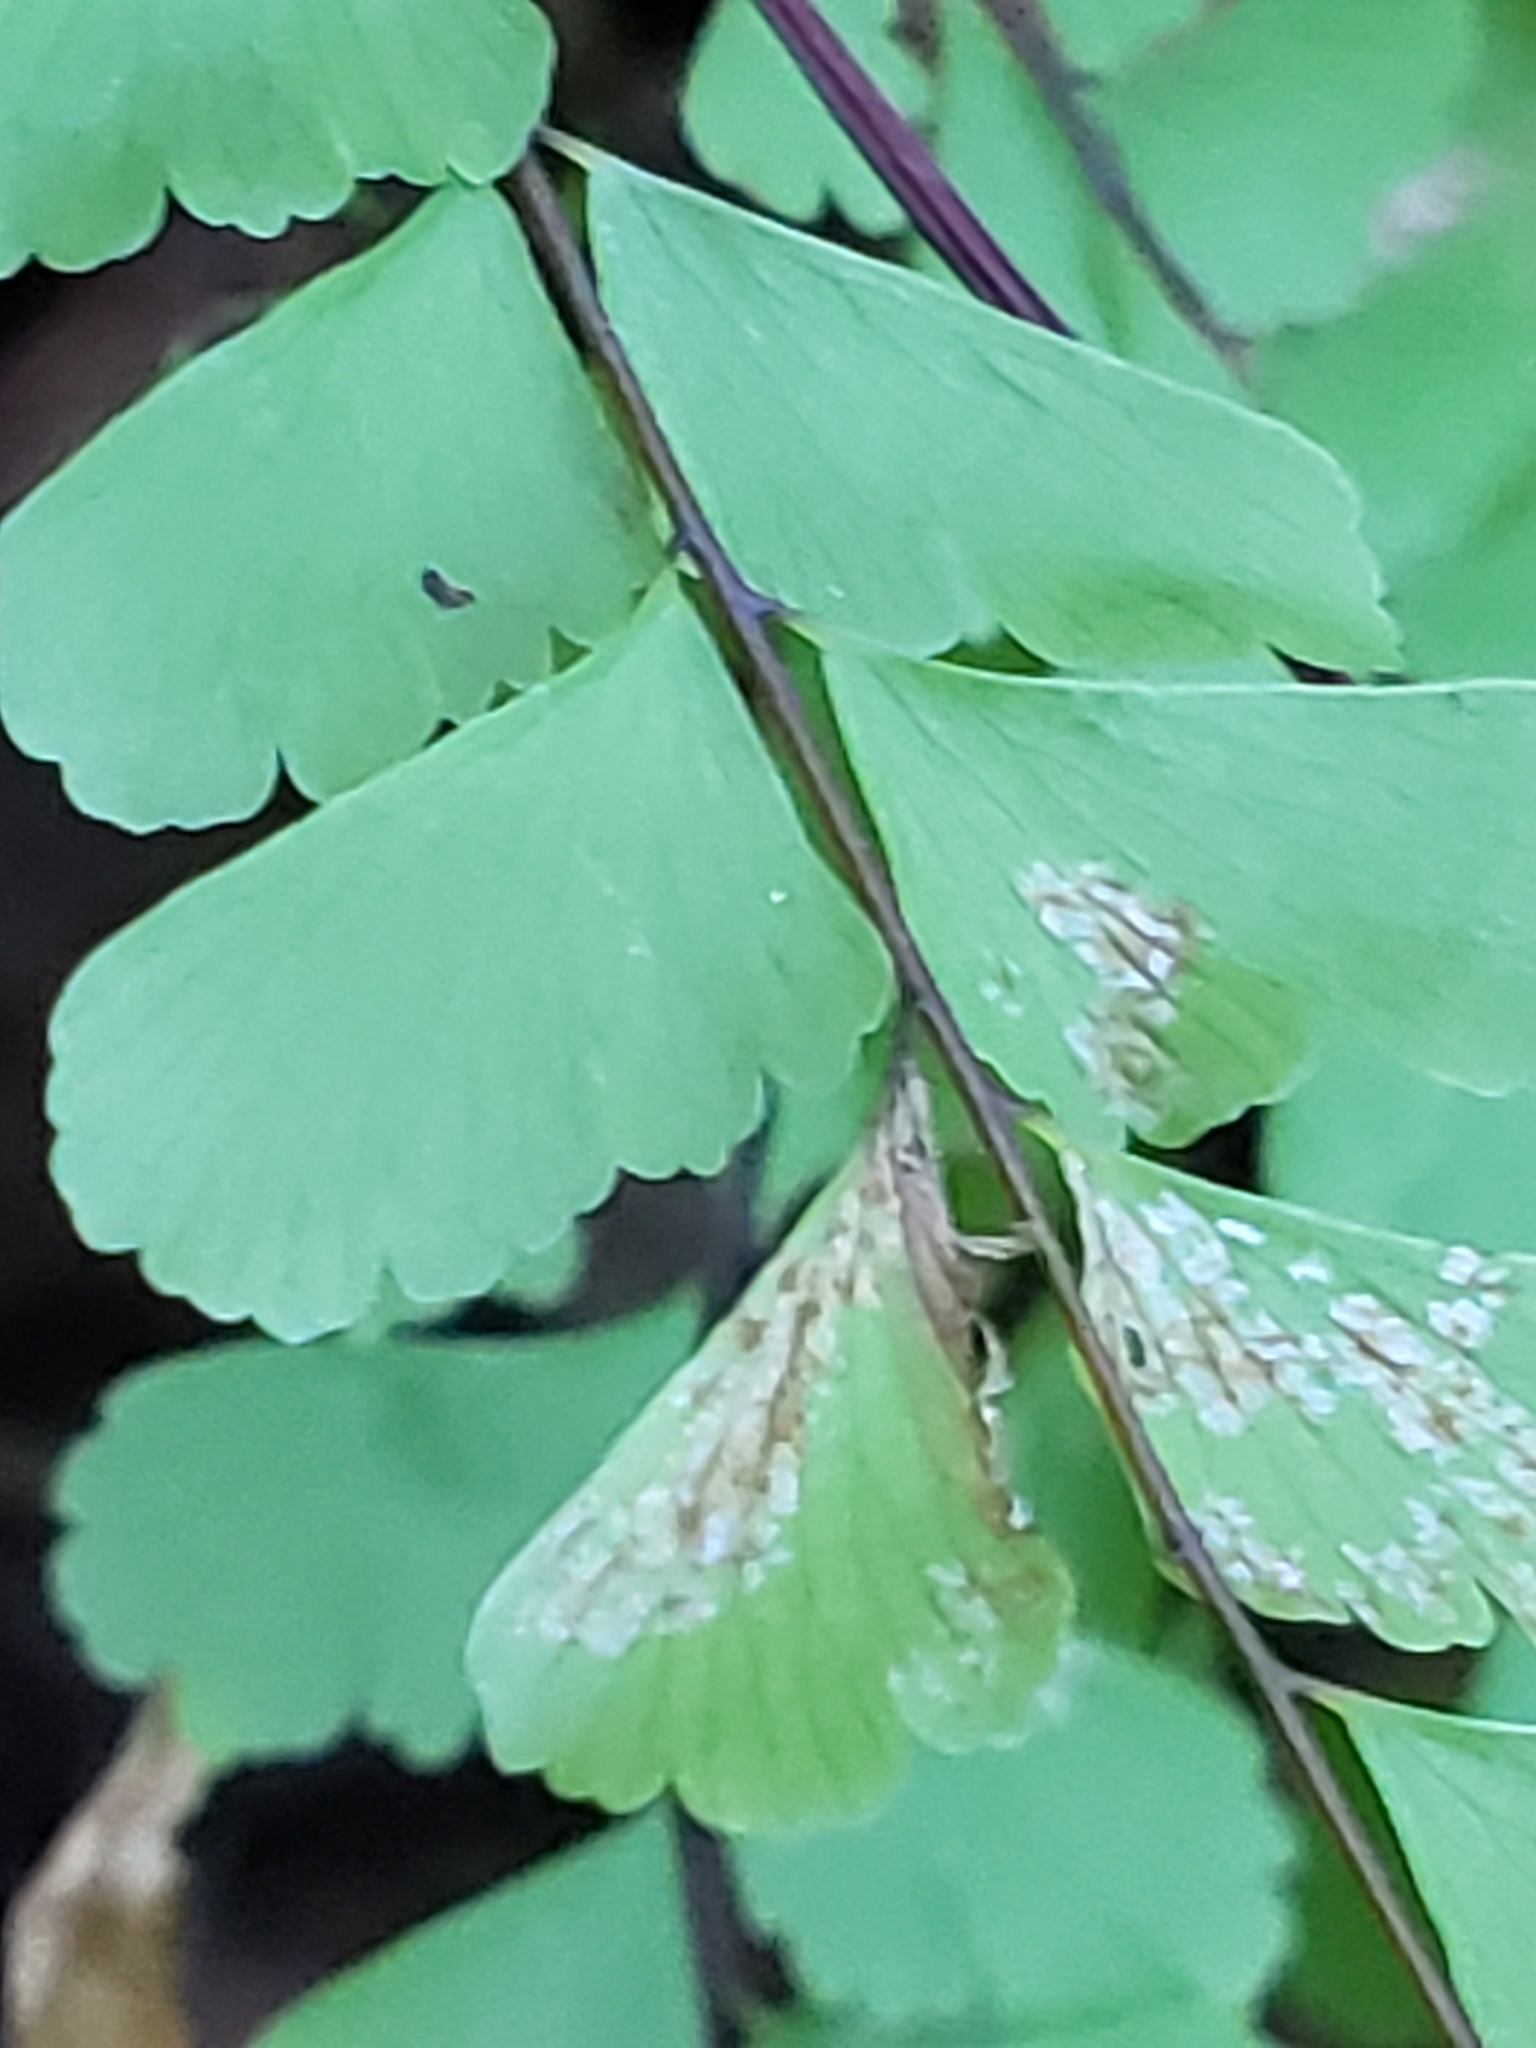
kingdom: Plantae
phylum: Tracheophyta
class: Polypodiopsida
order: Polypodiales
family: Pteridaceae
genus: Adiantum
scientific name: Adiantum pedatum
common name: Five-finger fern
